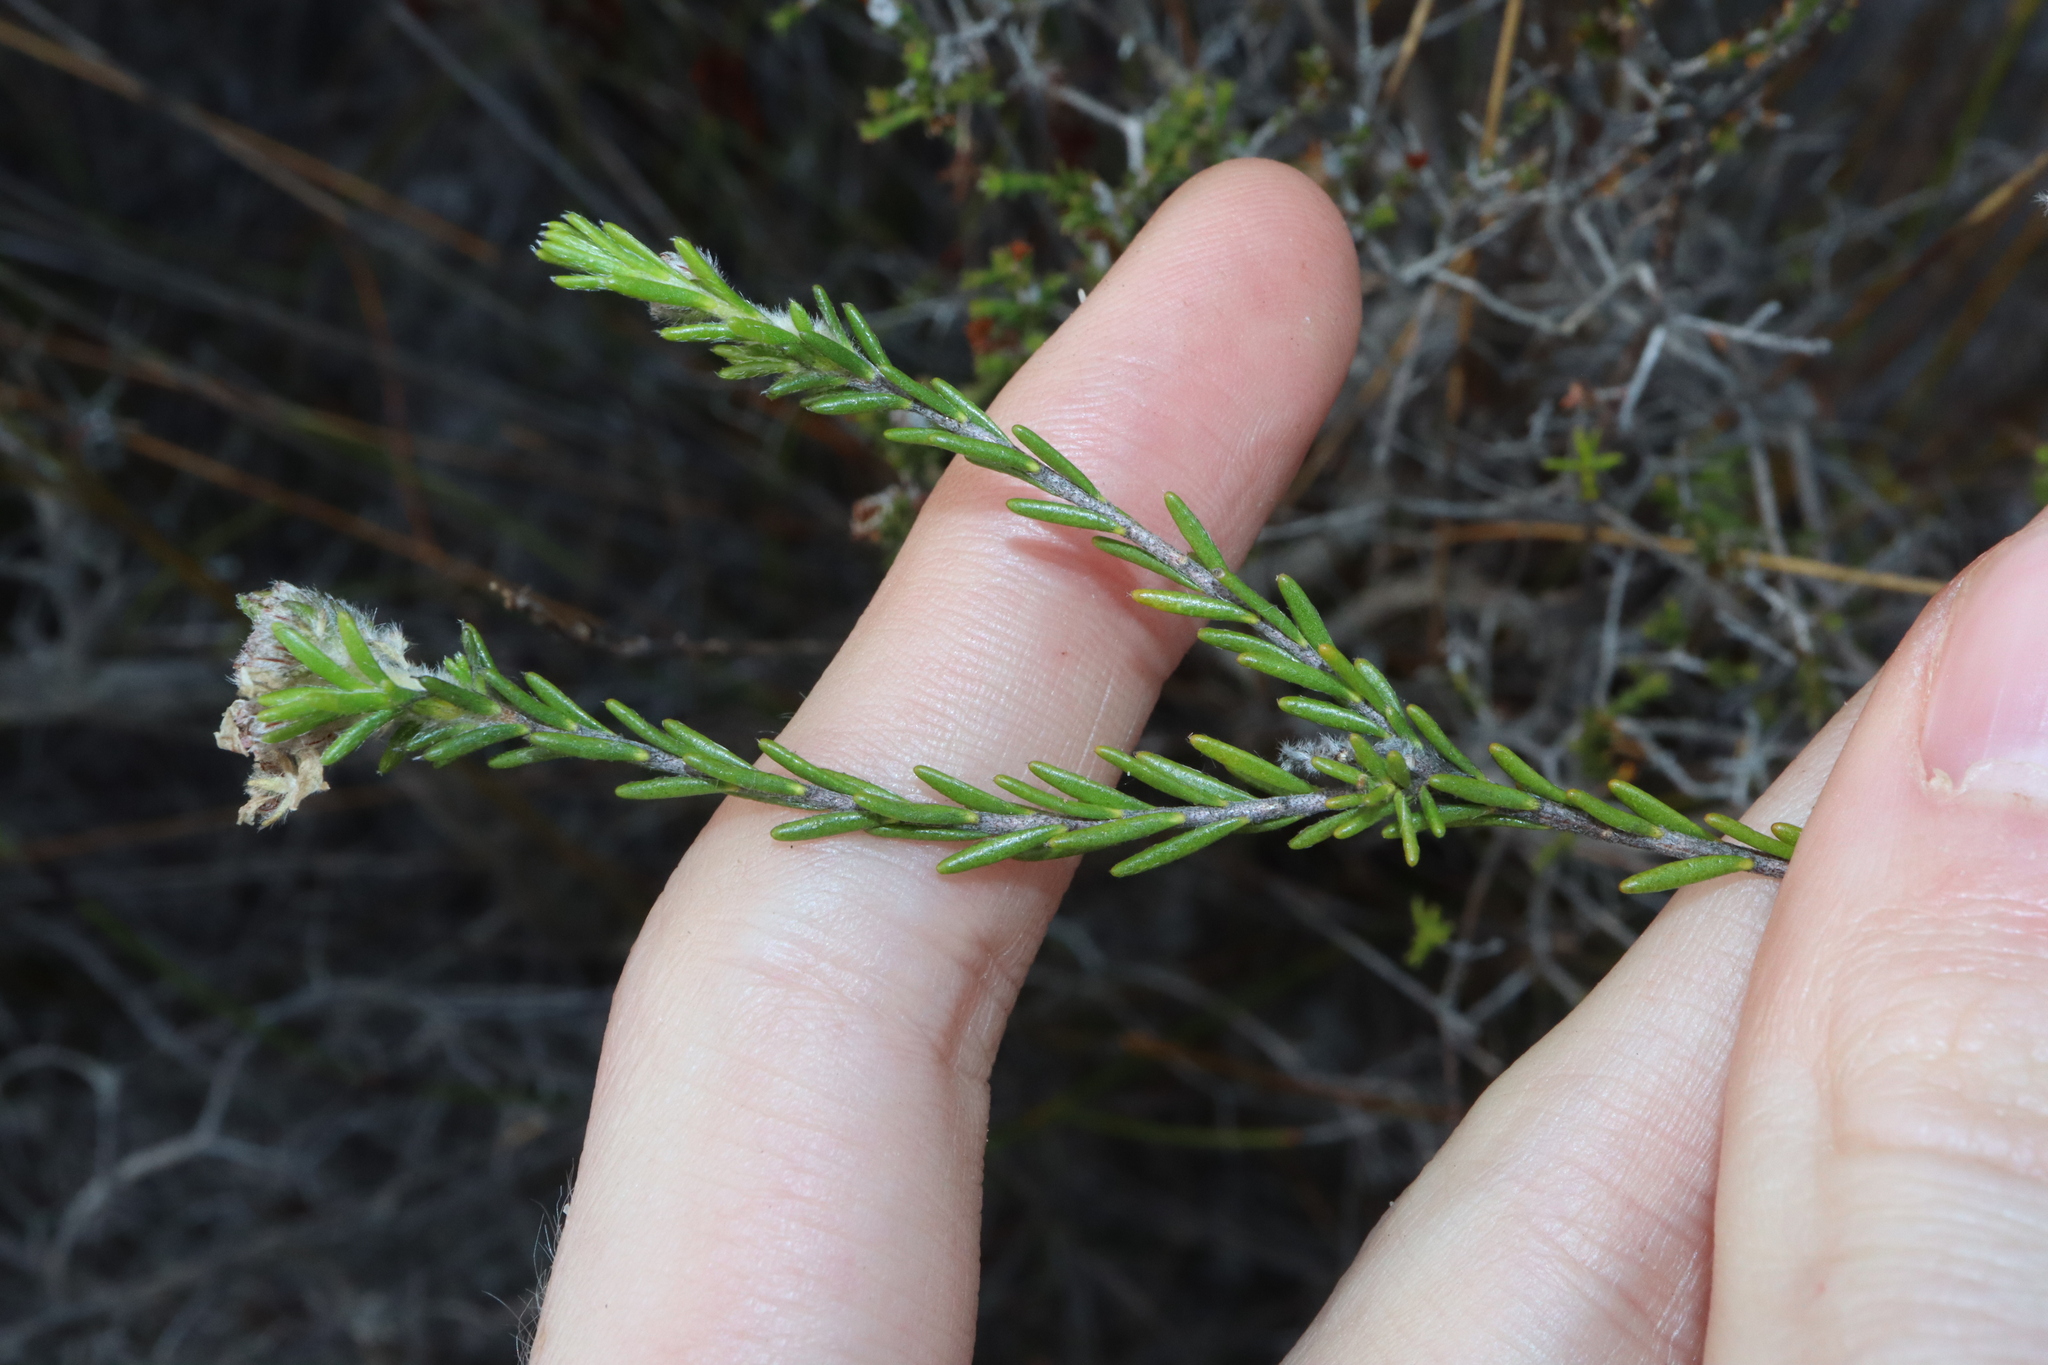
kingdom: Plantae
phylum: Tracheophyta
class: Magnoliopsida
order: Sapindales
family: Rutaceae
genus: Philotheca
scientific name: Philotheca nodiflora
